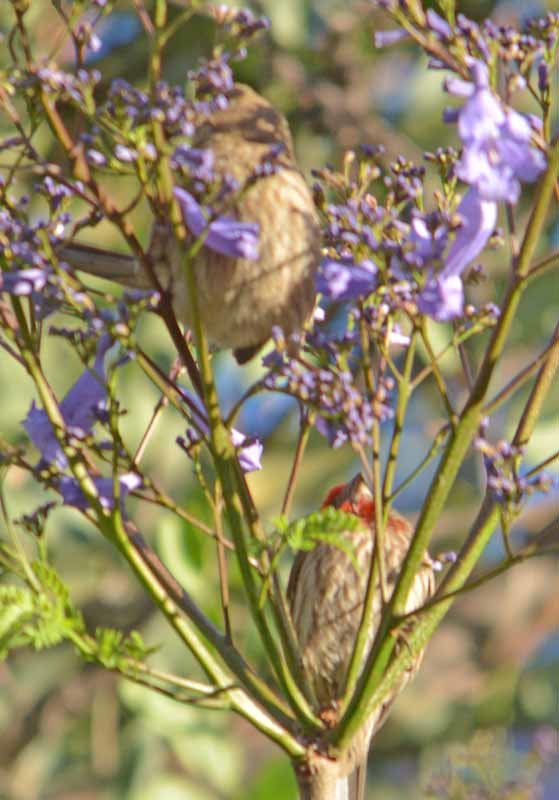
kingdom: Animalia
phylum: Chordata
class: Aves
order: Passeriformes
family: Fringillidae
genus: Haemorhous
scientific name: Haemorhous mexicanus
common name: House finch
